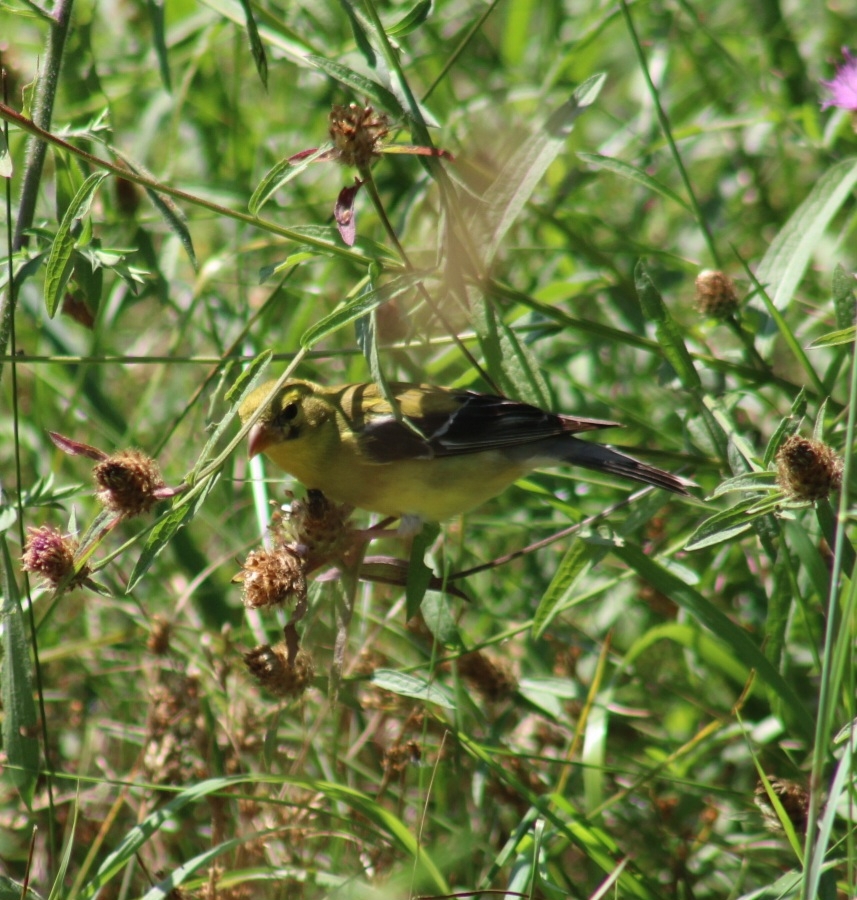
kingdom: Animalia
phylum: Chordata
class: Aves
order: Passeriformes
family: Fringillidae
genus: Spinus
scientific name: Spinus tristis
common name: American goldfinch
